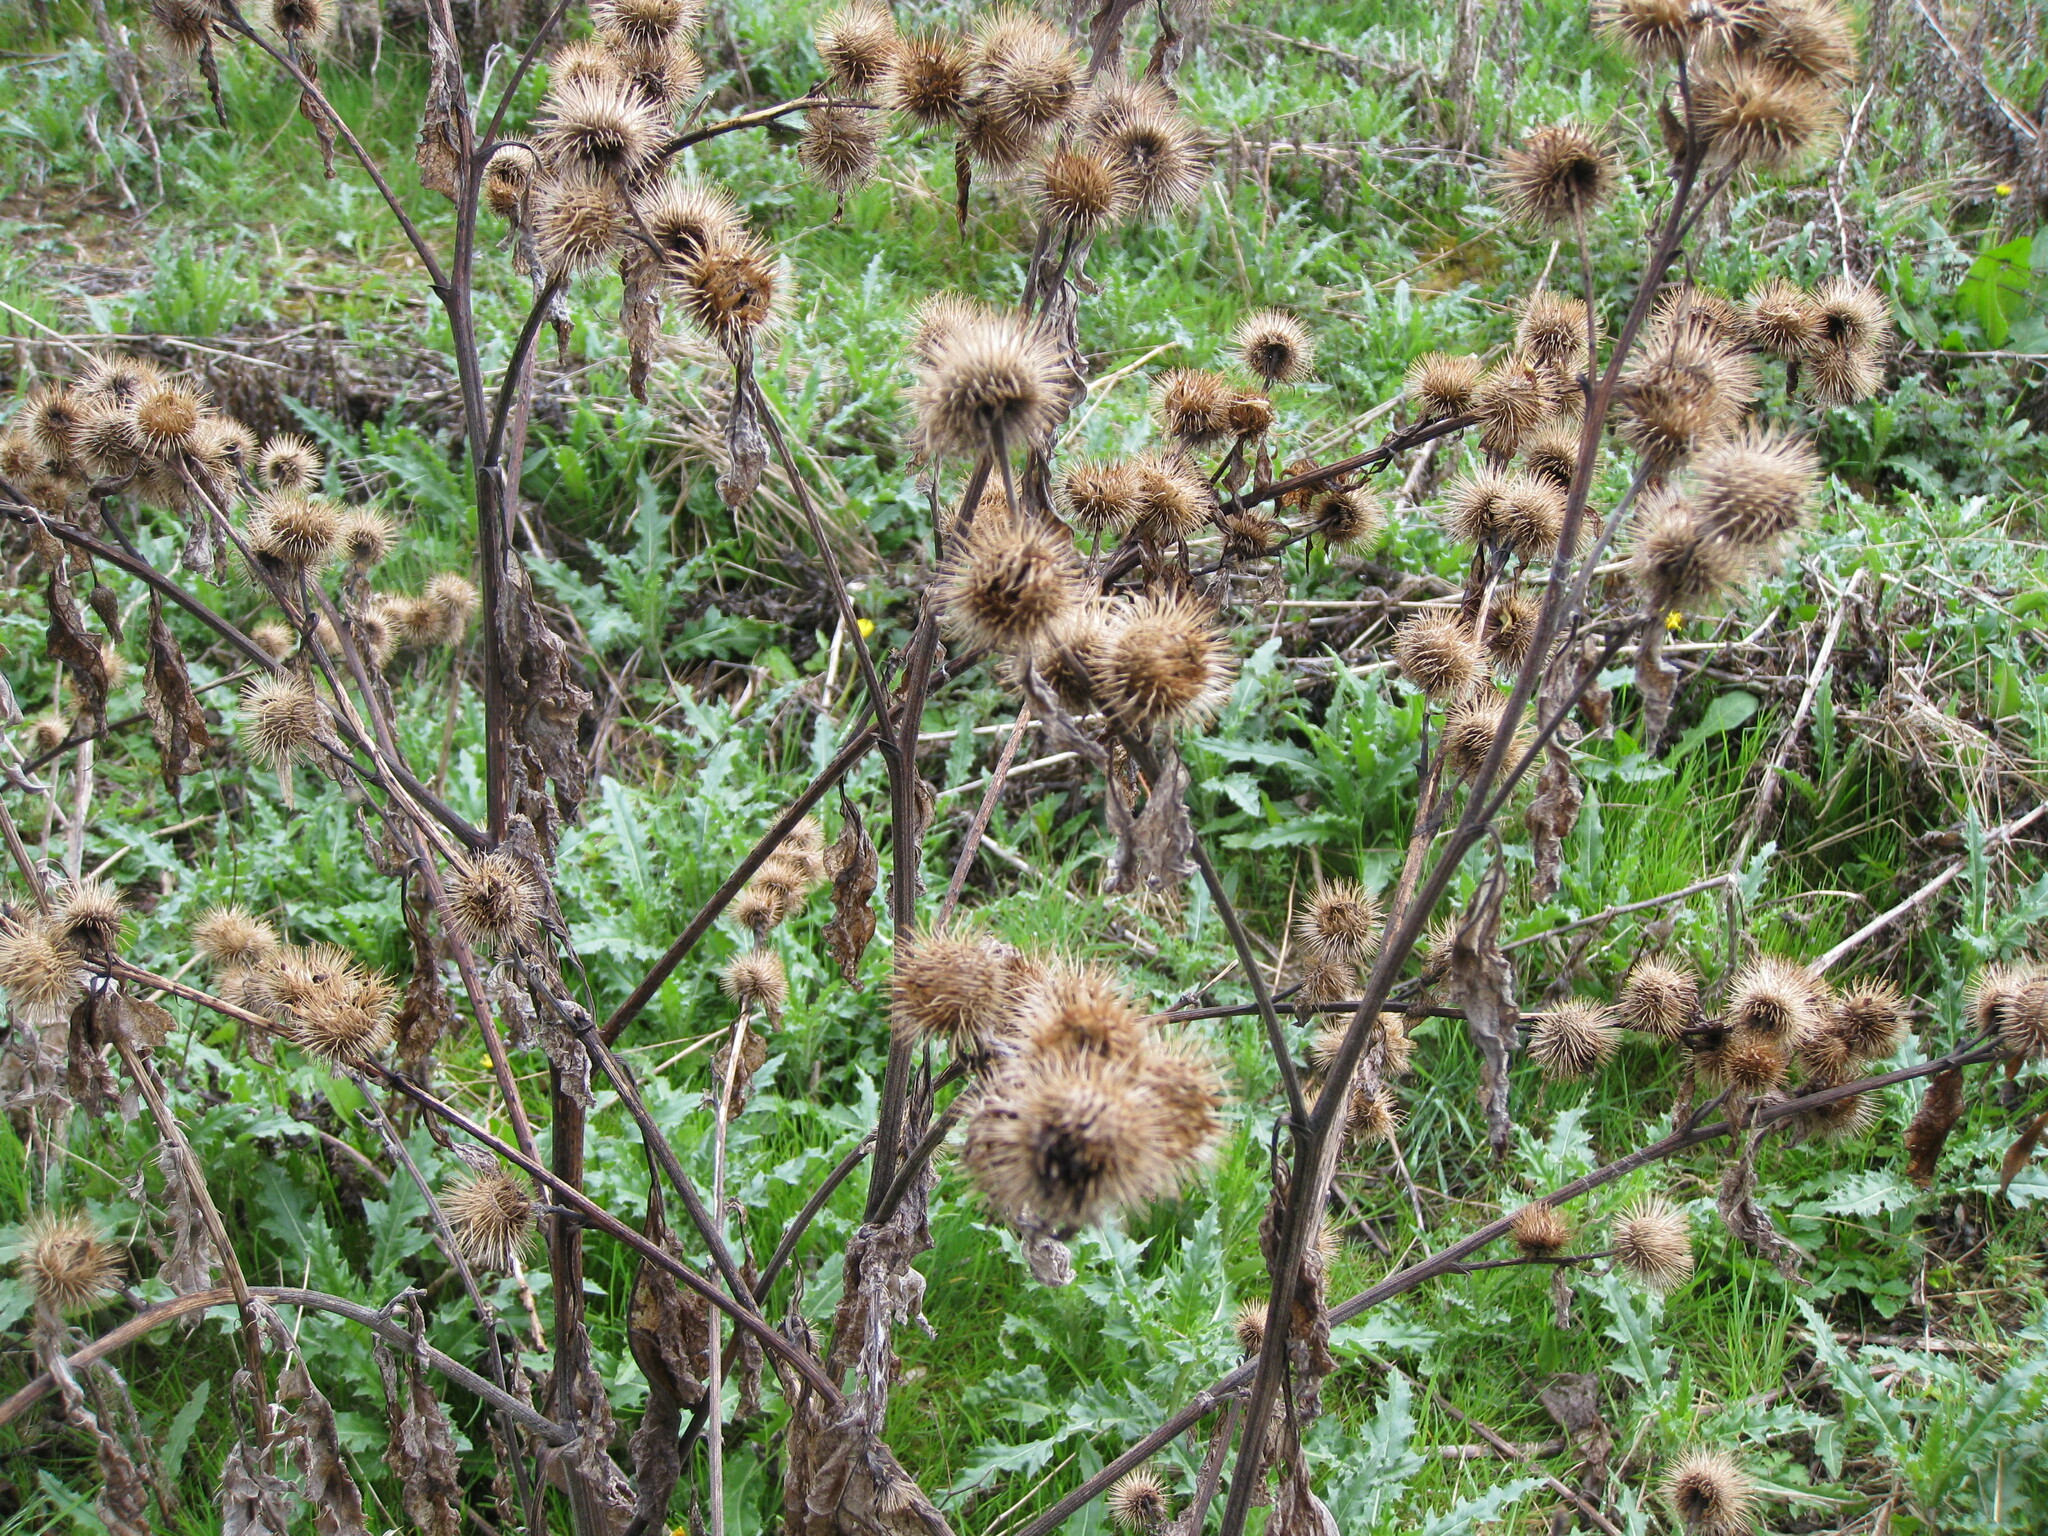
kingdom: Plantae
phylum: Tracheophyta
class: Magnoliopsida
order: Asterales
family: Asteraceae
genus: Arctium
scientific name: Arctium minus
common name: Lesser burdock
